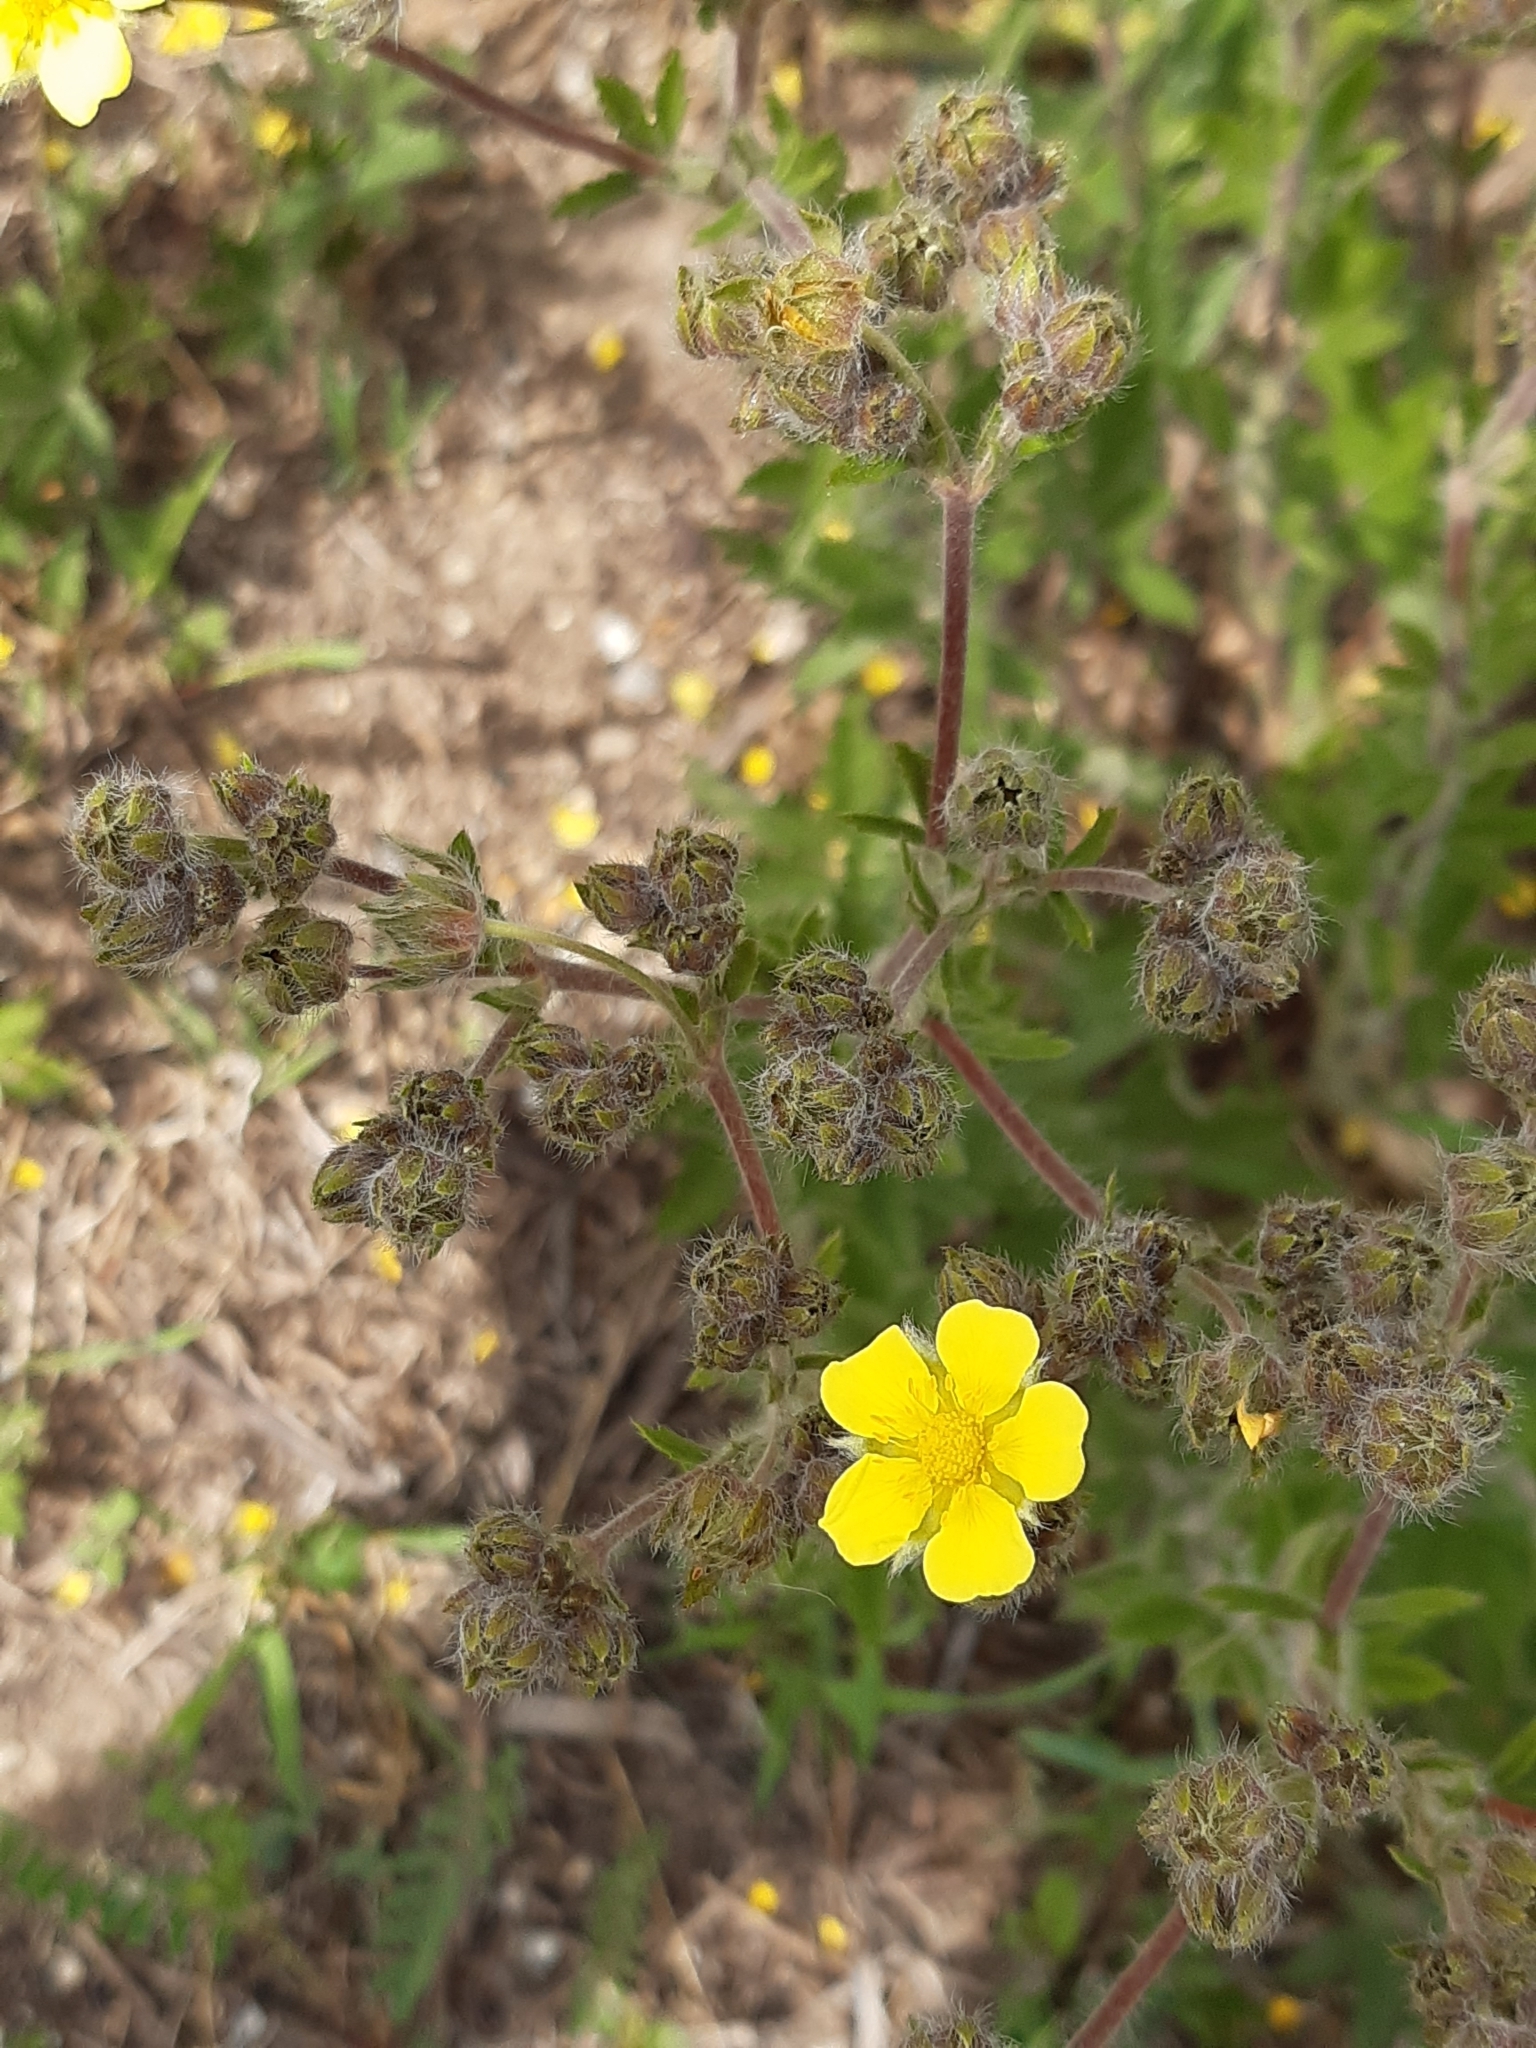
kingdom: Plantae
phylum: Tracheophyta
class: Magnoliopsida
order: Rosales
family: Rosaceae
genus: Potentilla
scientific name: Potentilla recta
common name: Sulphur cinquefoil
